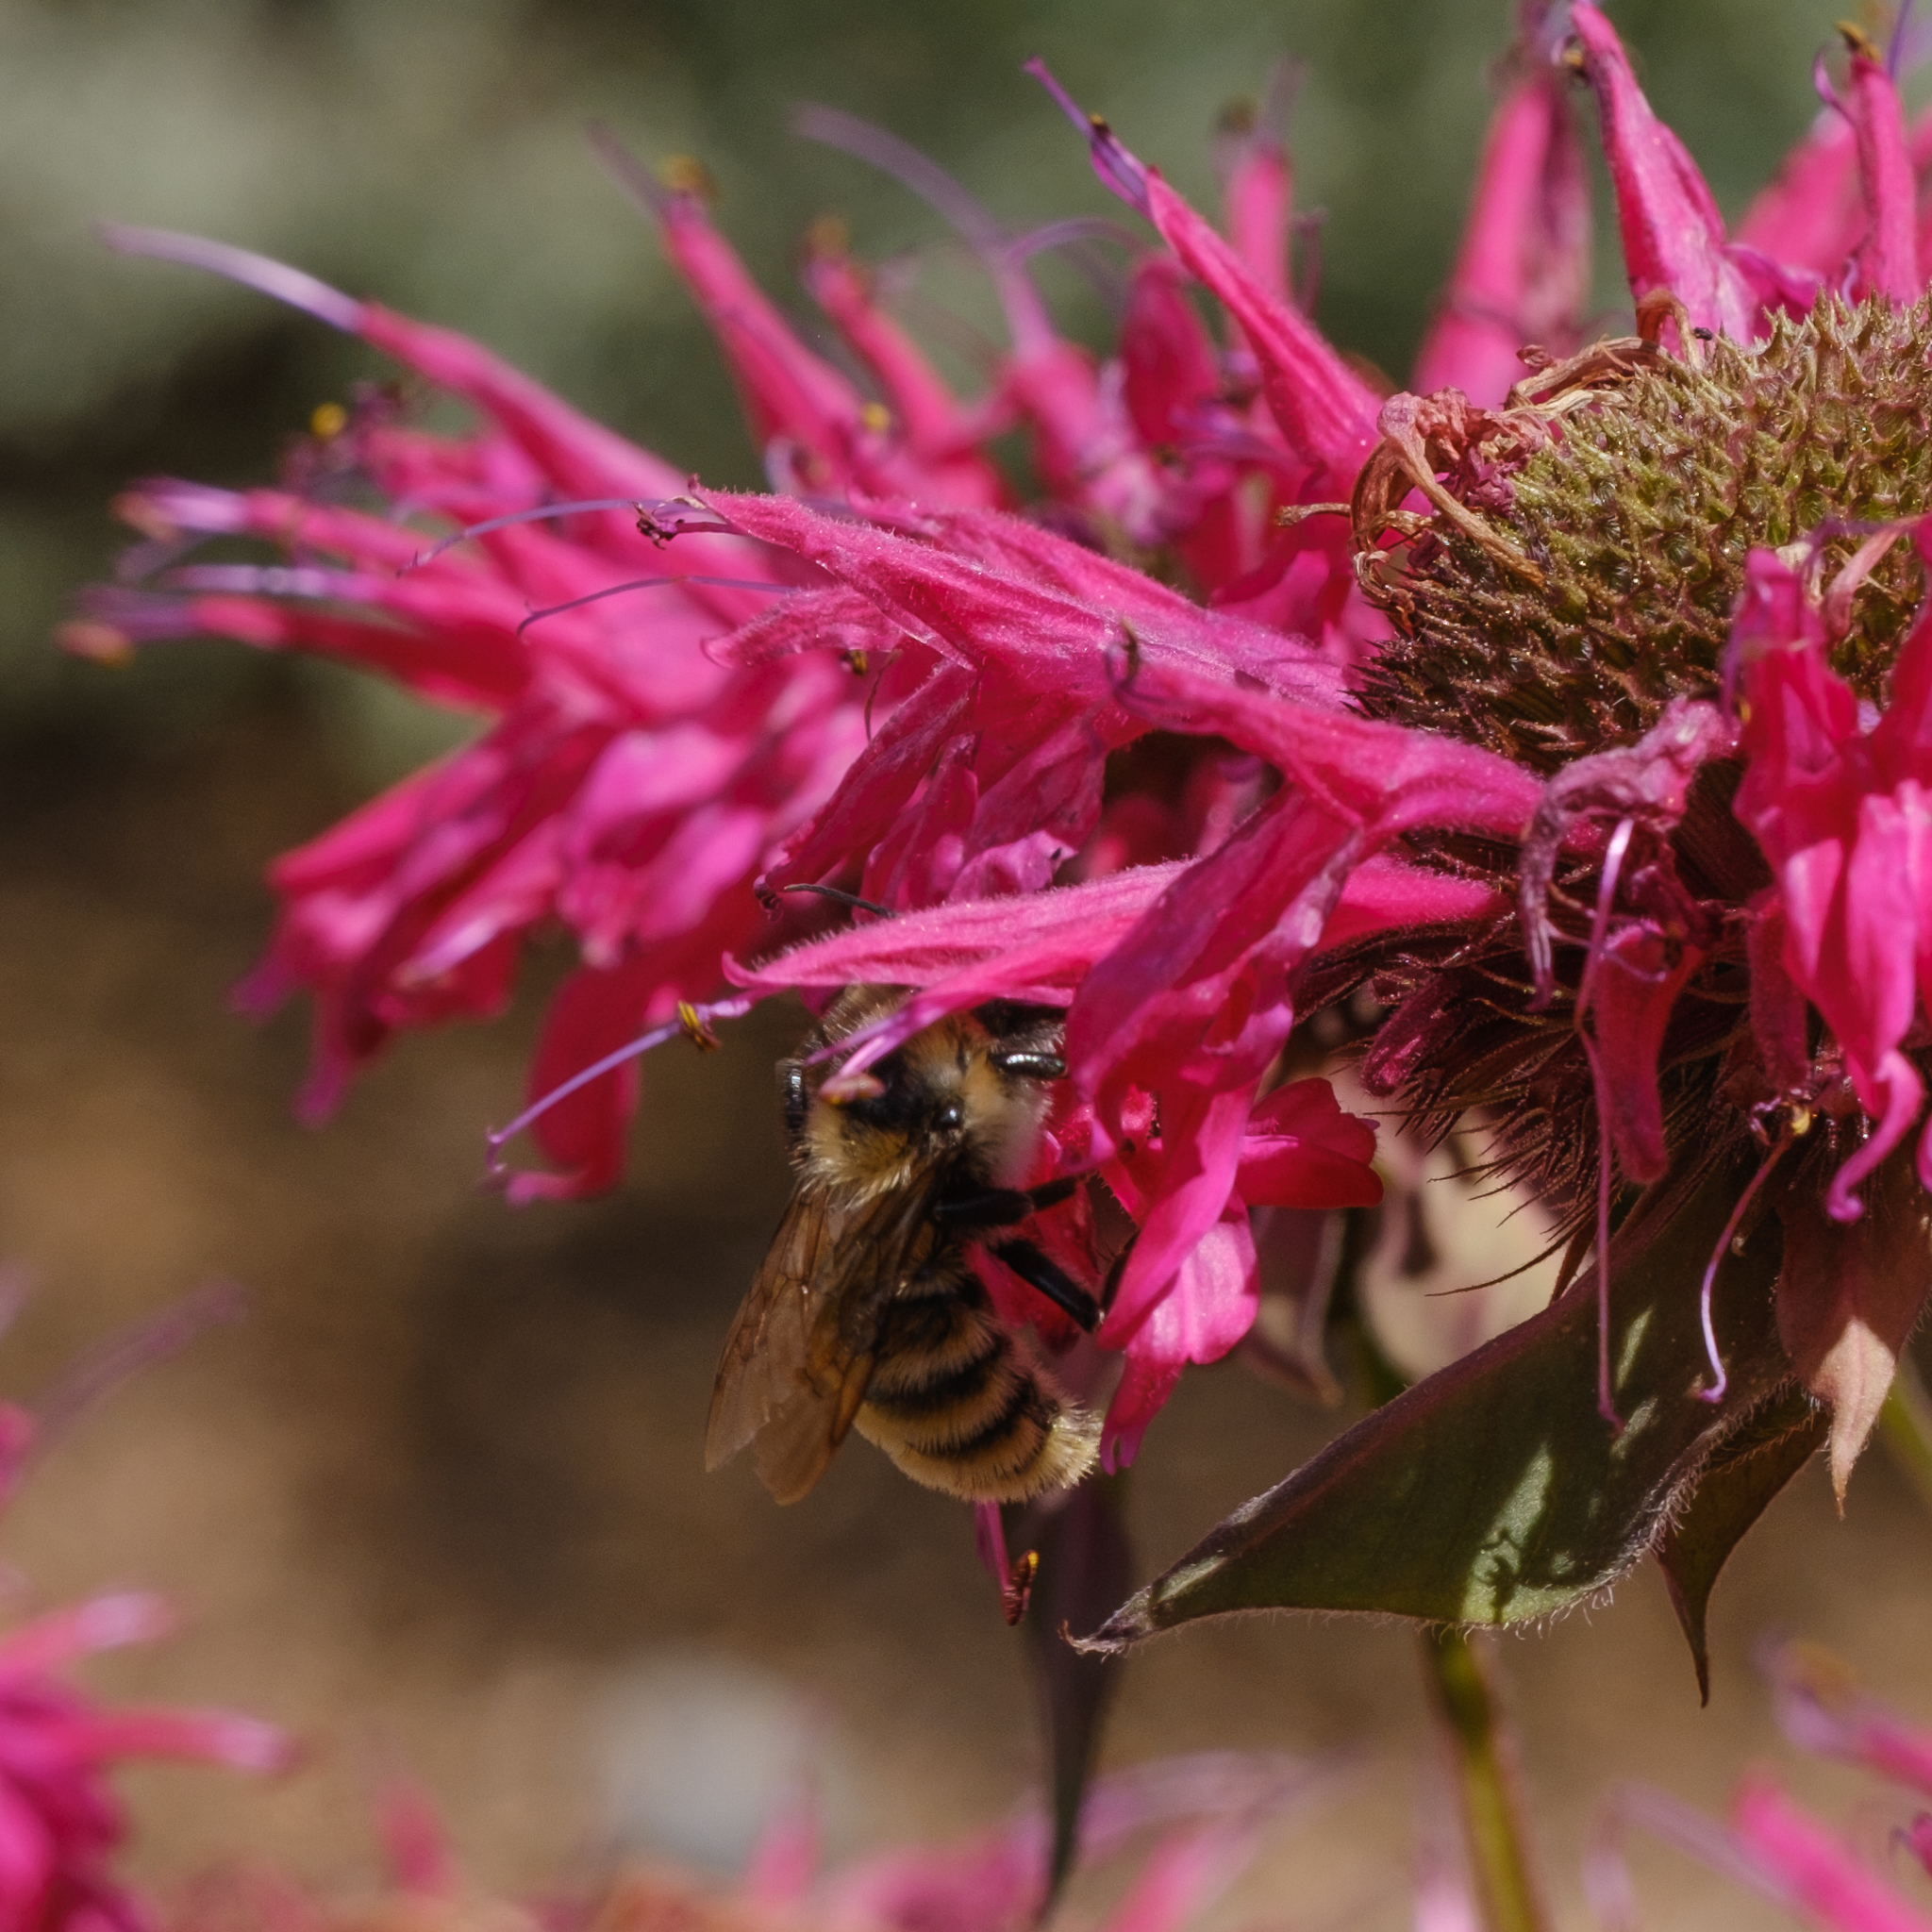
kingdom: Animalia
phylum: Arthropoda
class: Insecta
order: Hymenoptera
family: Apidae
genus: Bombus
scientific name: Bombus appositus
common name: White-shouldered bumble bee
